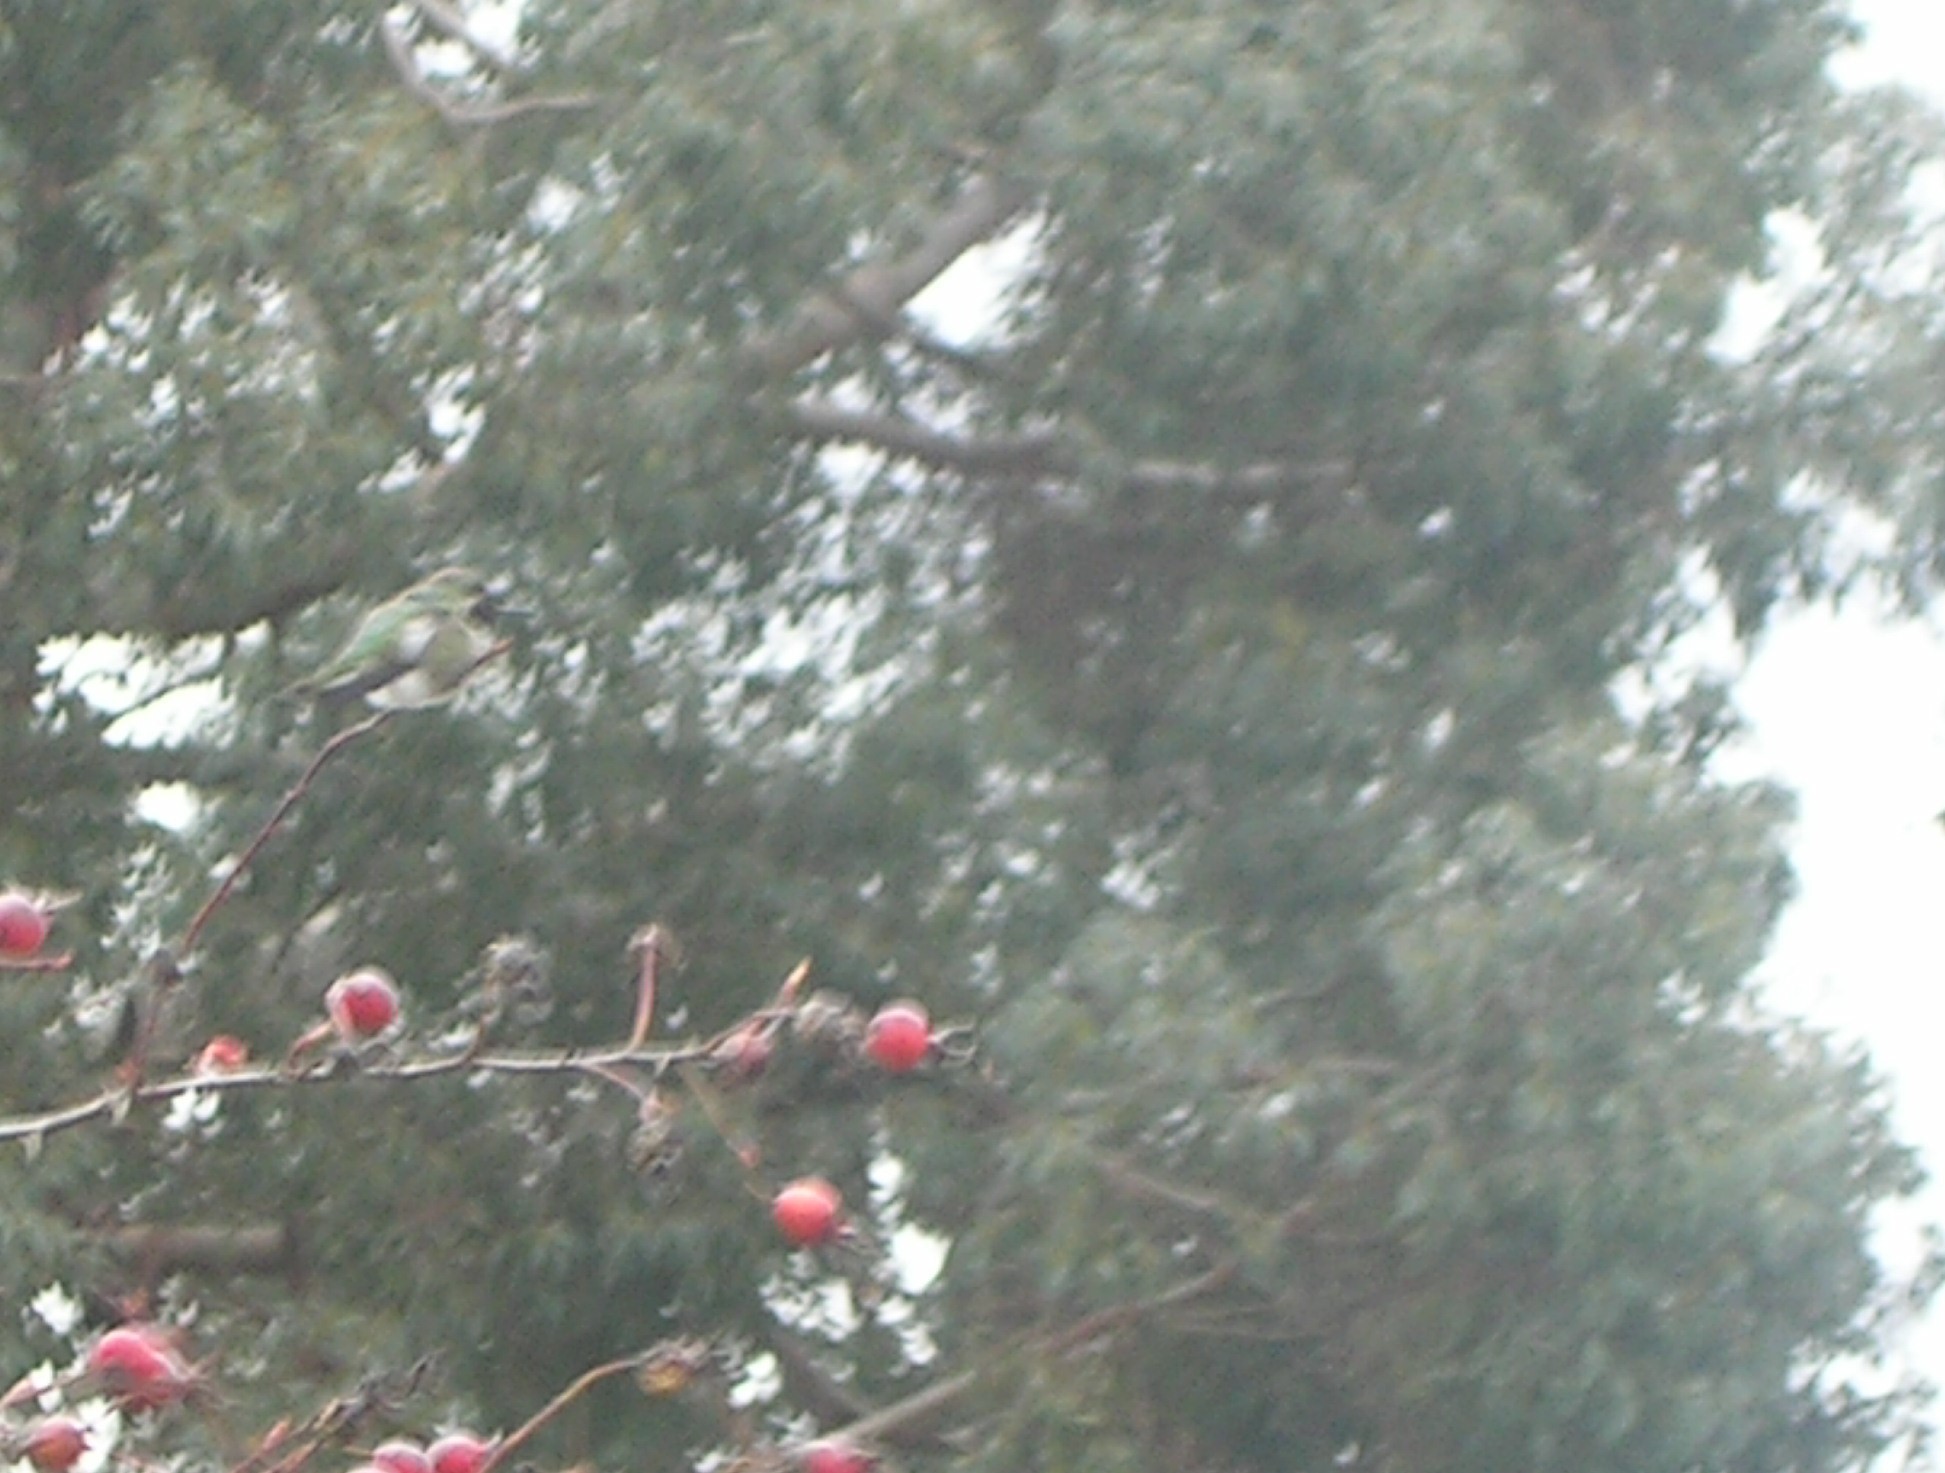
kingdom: Animalia
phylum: Chordata
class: Aves
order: Apodiformes
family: Trochilidae
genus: Calypte
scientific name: Calypte anna
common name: Anna's hummingbird
